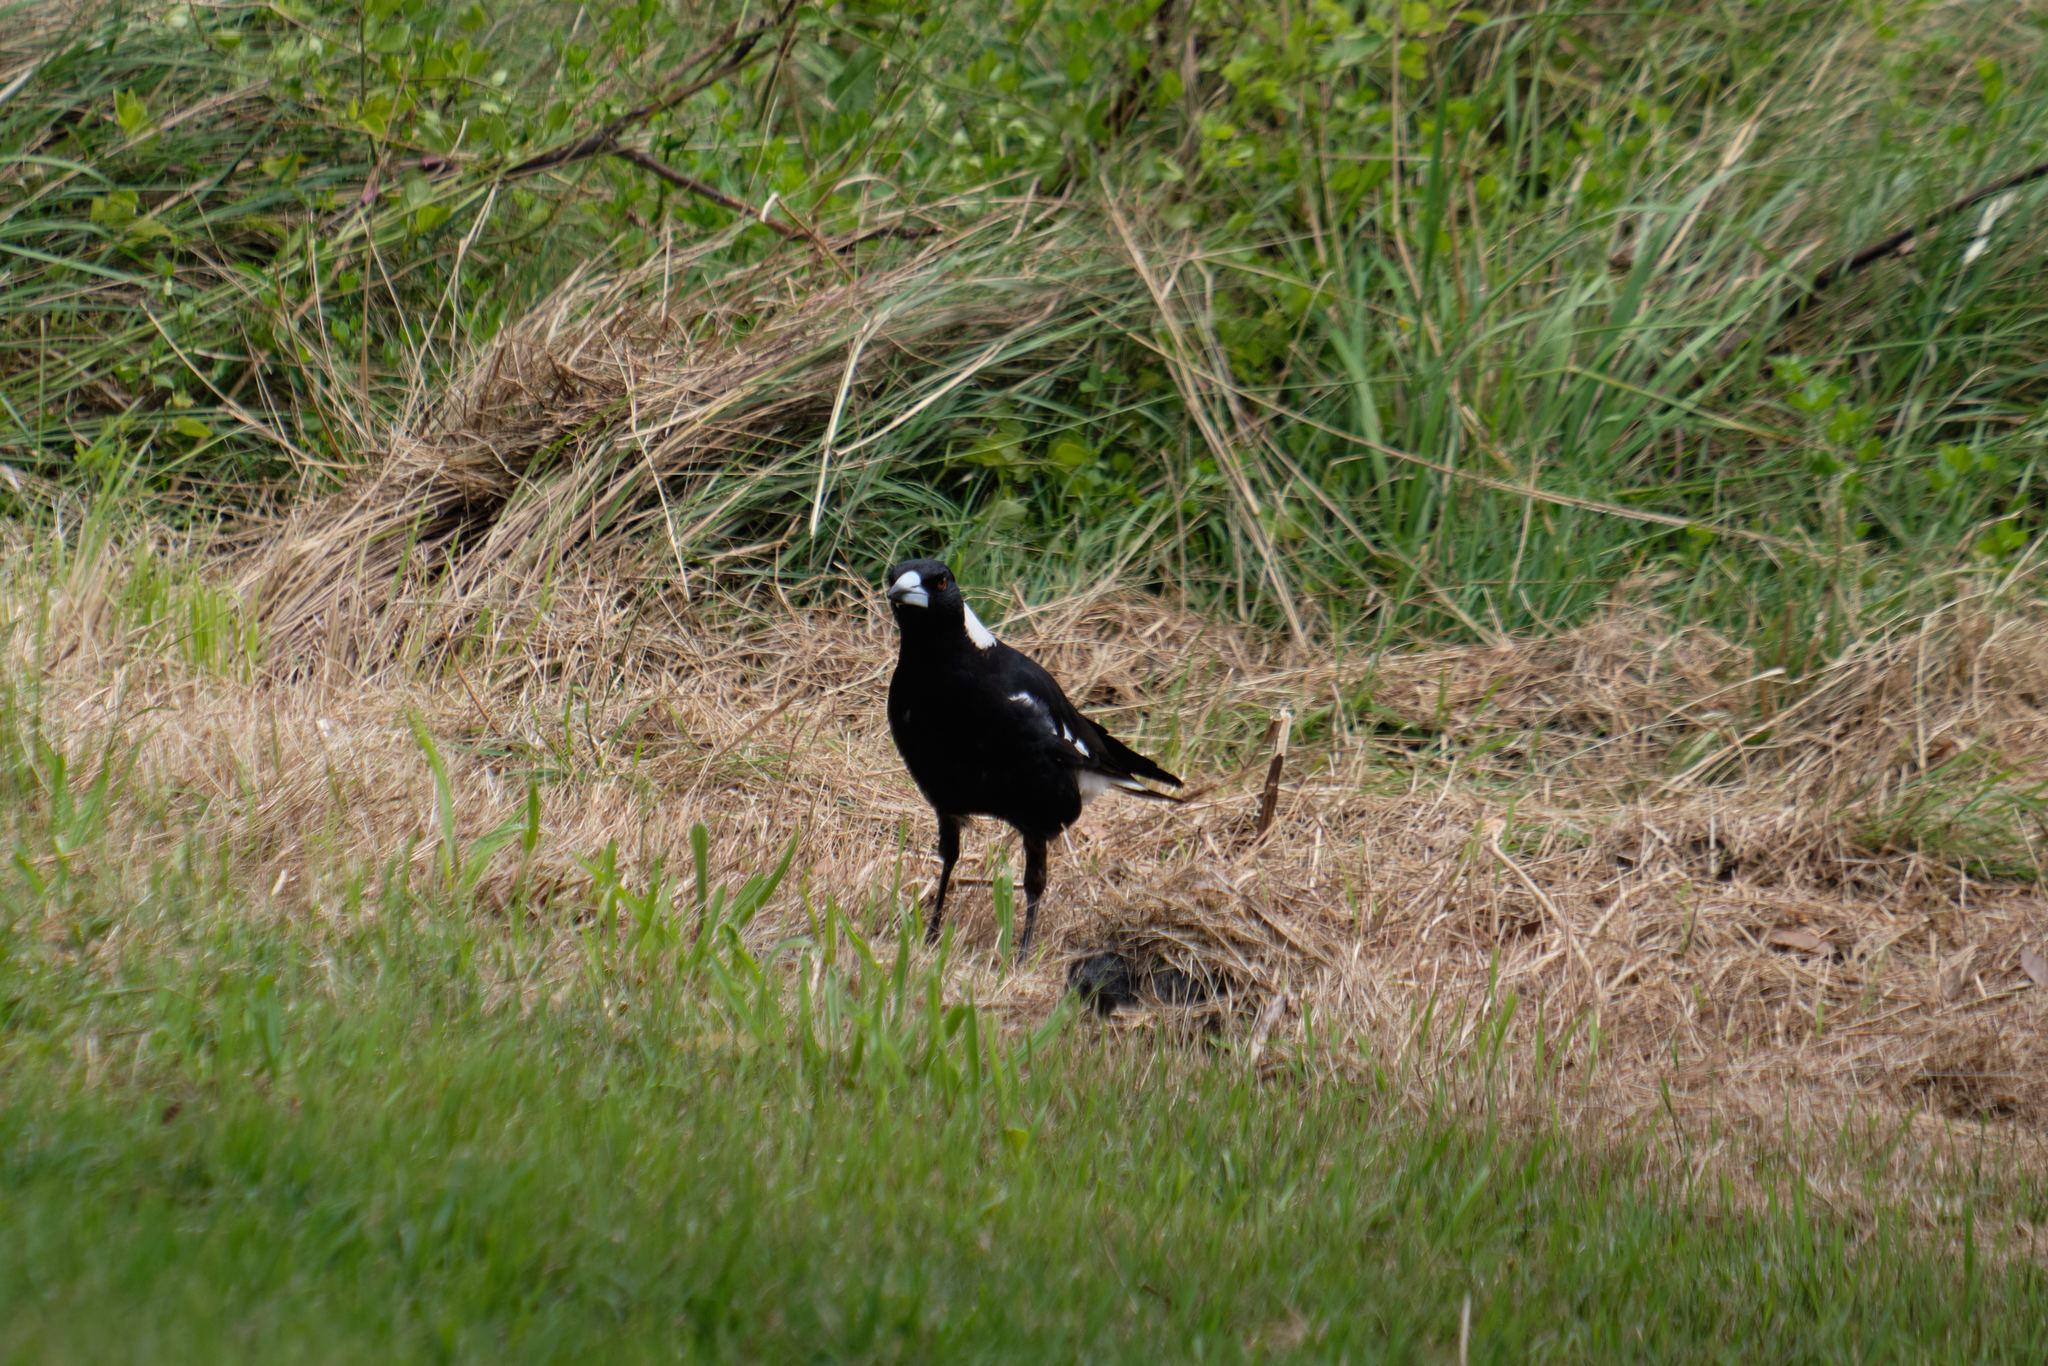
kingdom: Animalia
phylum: Chordata
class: Aves
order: Passeriformes
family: Cracticidae
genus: Gymnorhina
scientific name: Gymnorhina tibicen
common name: Australian magpie
